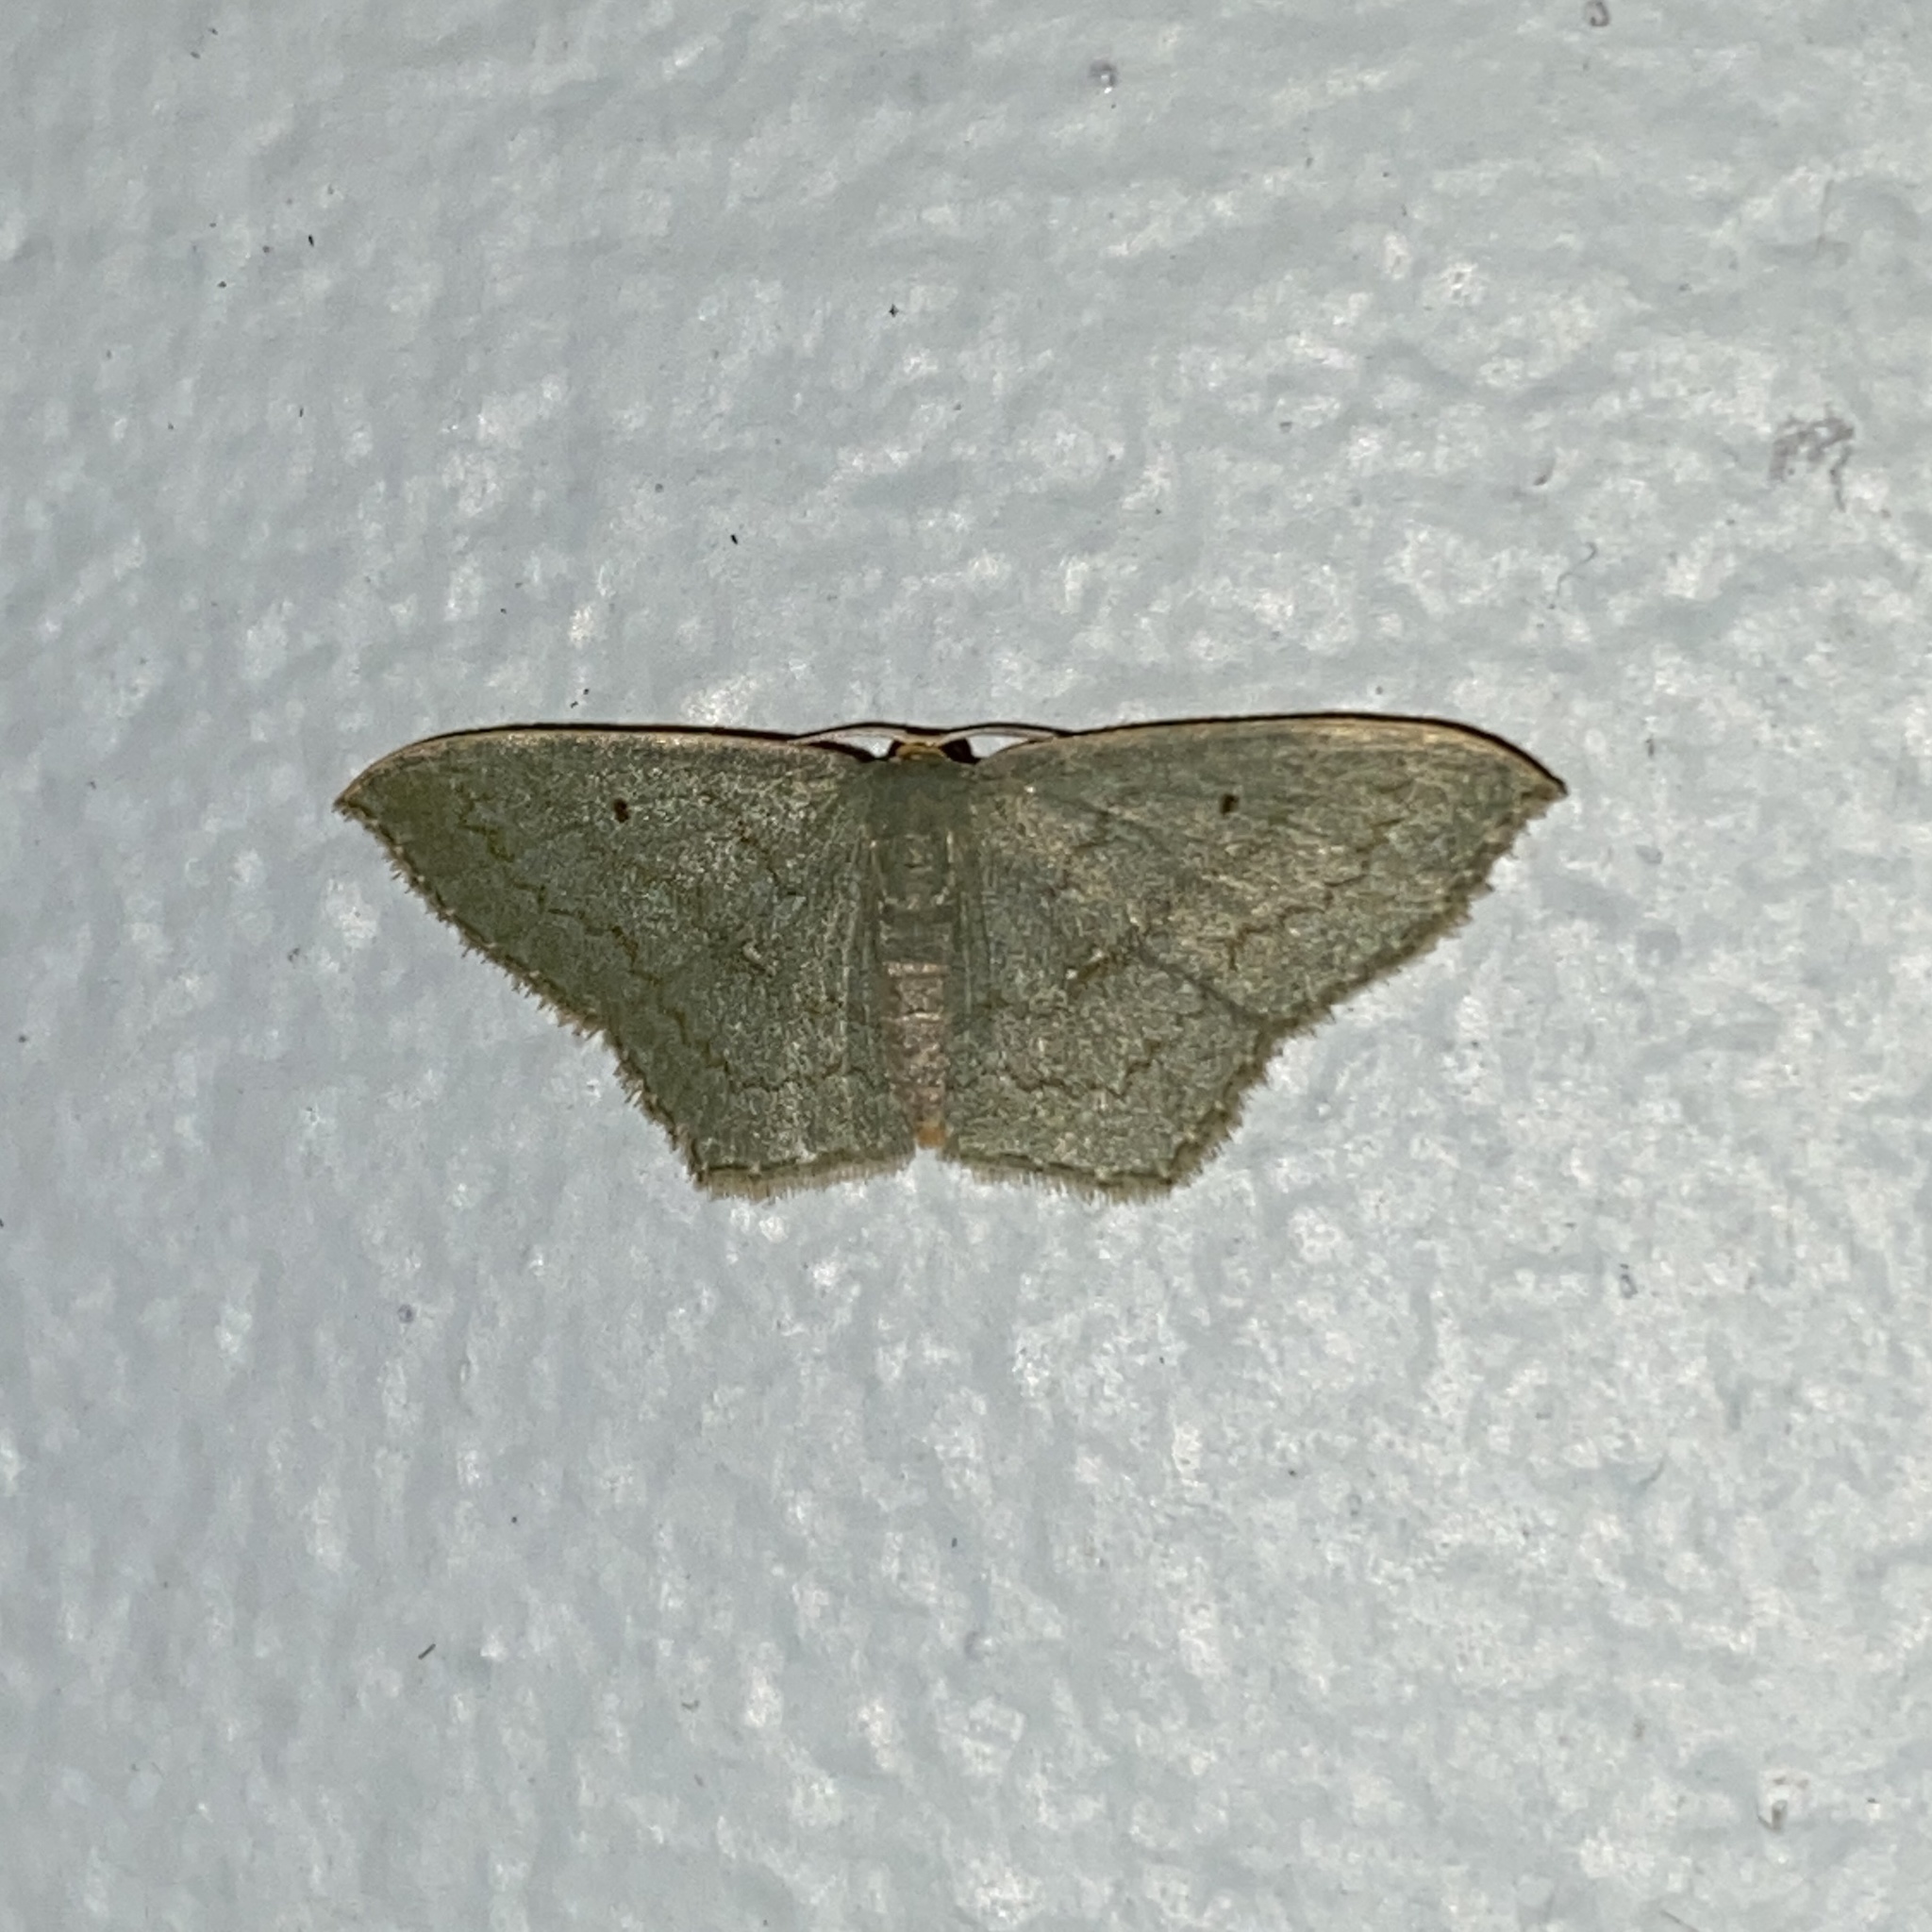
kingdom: Animalia
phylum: Arthropoda
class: Insecta
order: Lepidoptera
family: Geometridae
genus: Dithecodes
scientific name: Dithecodes deaurata
